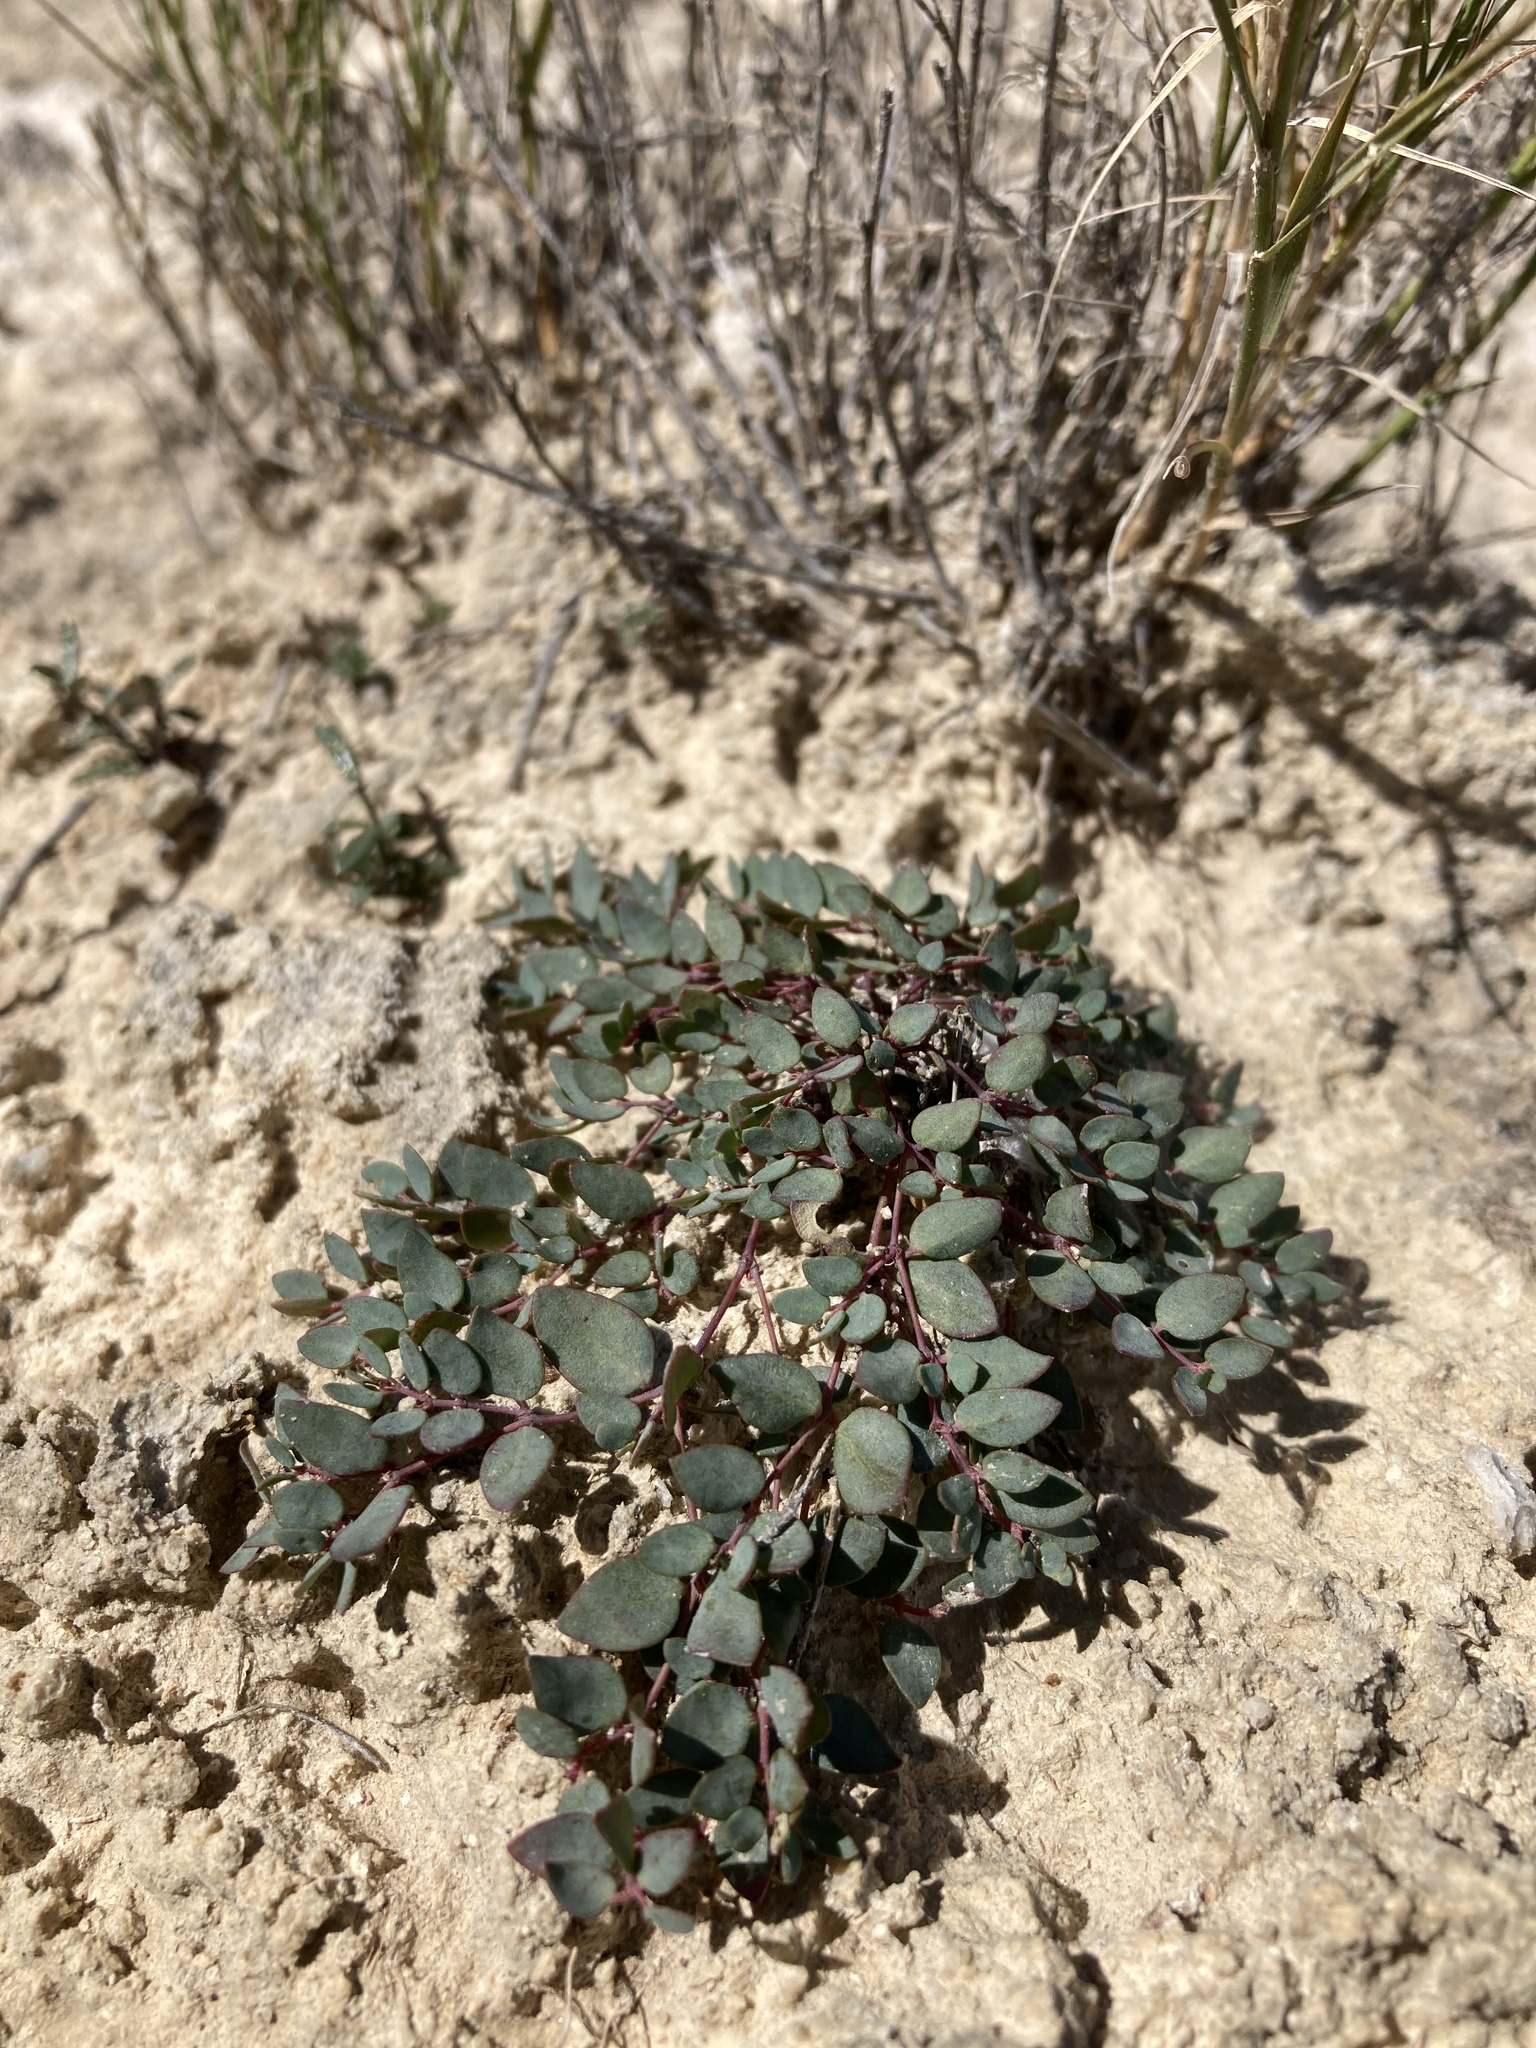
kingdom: Plantae
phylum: Tracheophyta
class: Magnoliopsida
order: Malpighiales
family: Euphorbiaceae
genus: Euphorbia
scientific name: Euphorbia fendleri
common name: Fendler's euphorbia
